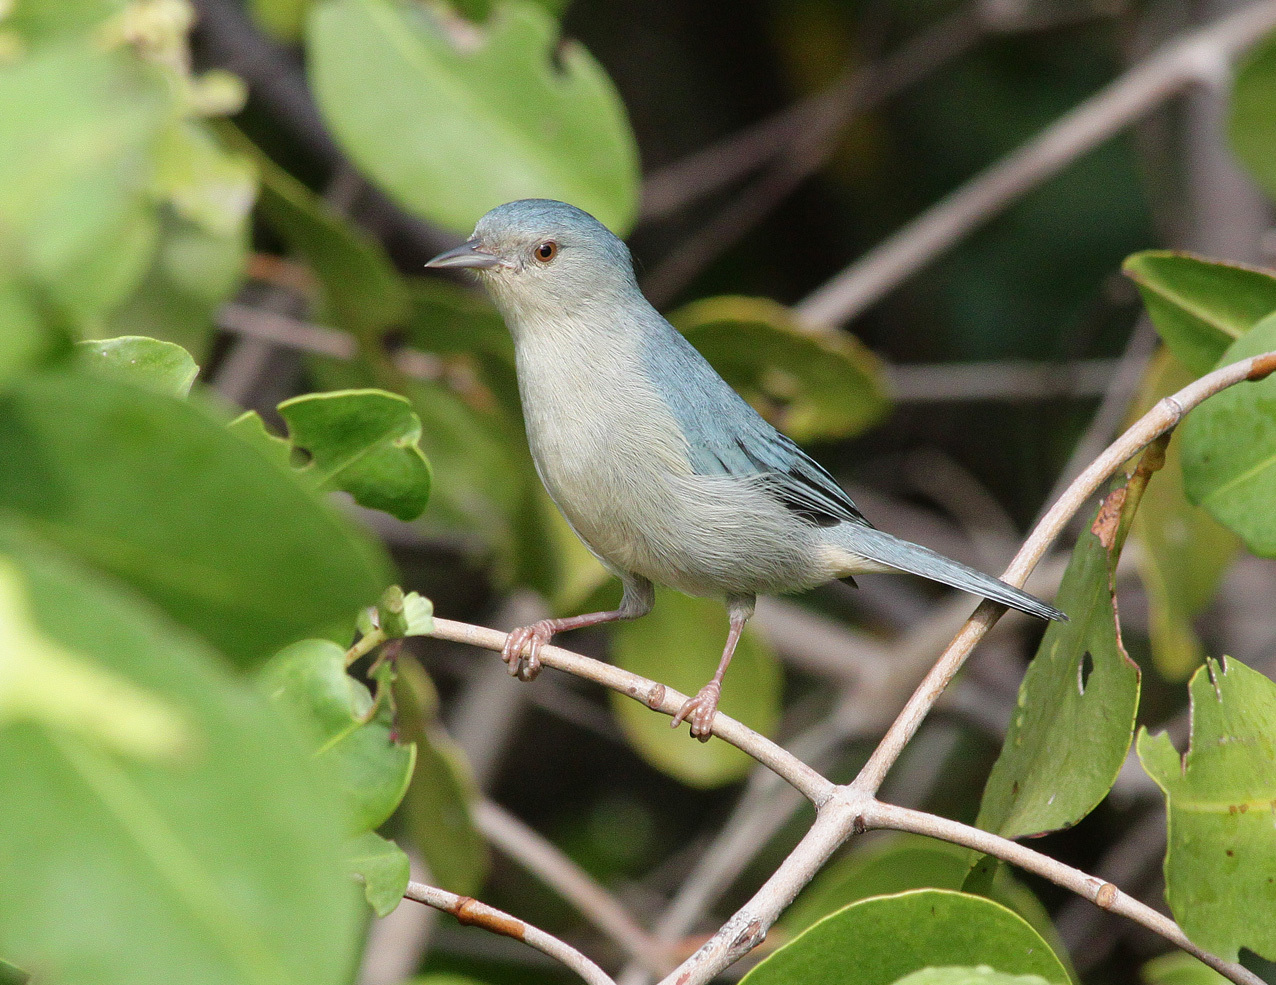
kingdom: Animalia
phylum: Chordata
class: Aves
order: Passeriformes
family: Thraupidae
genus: Conirostrum
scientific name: Conirostrum bicolor
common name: Bicolored conebill
